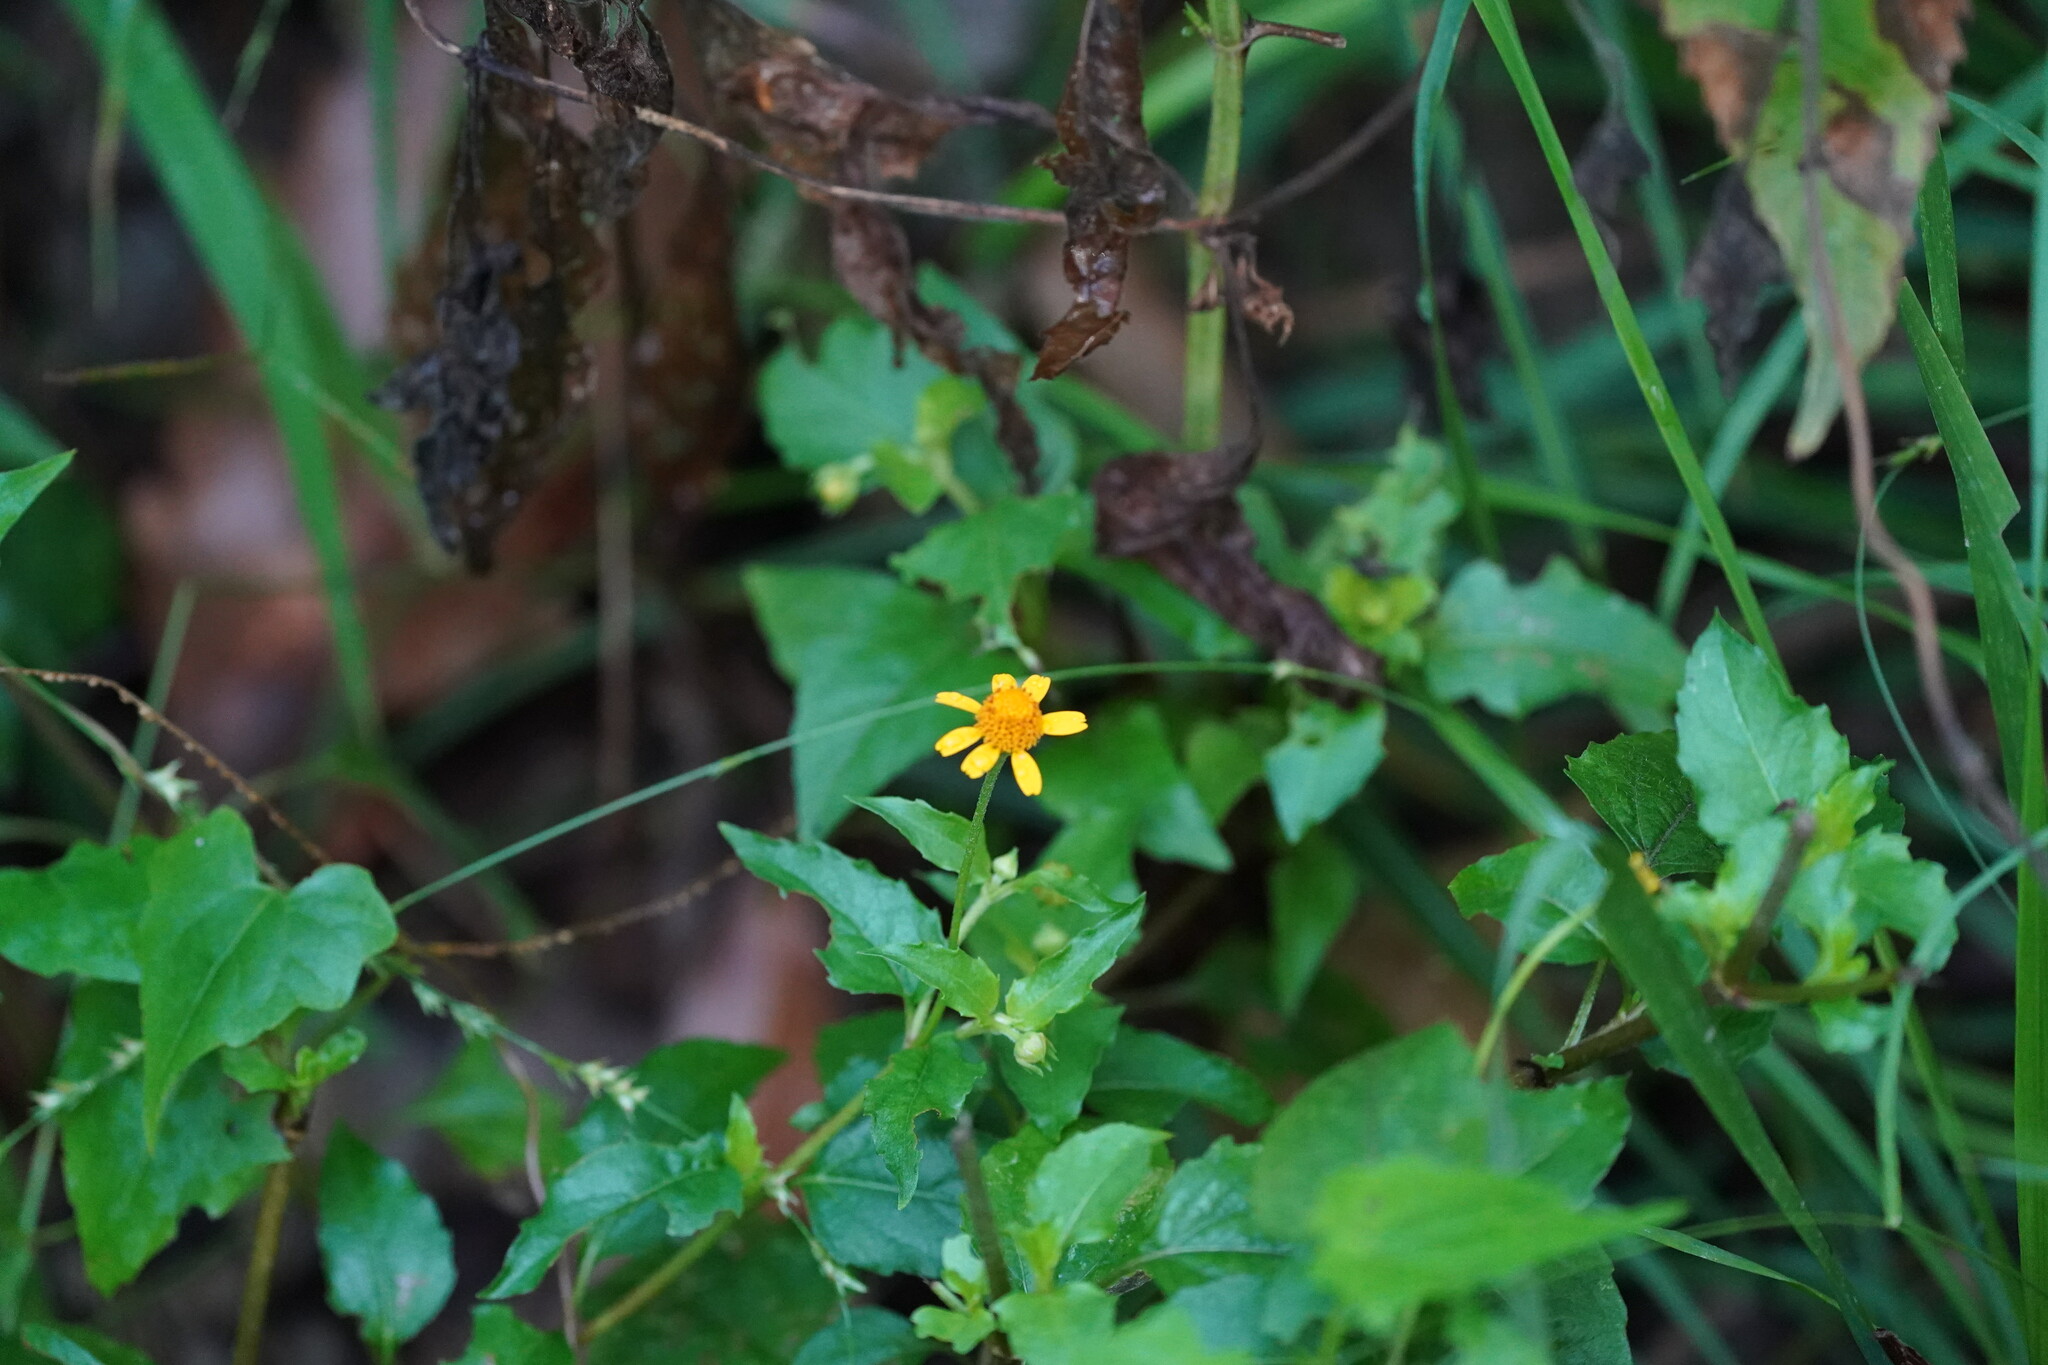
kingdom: Plantae
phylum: Tracheophyta
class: Magnoliopsida
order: Asterales
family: Asteraceae
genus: Acmella
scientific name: Acmella repens
